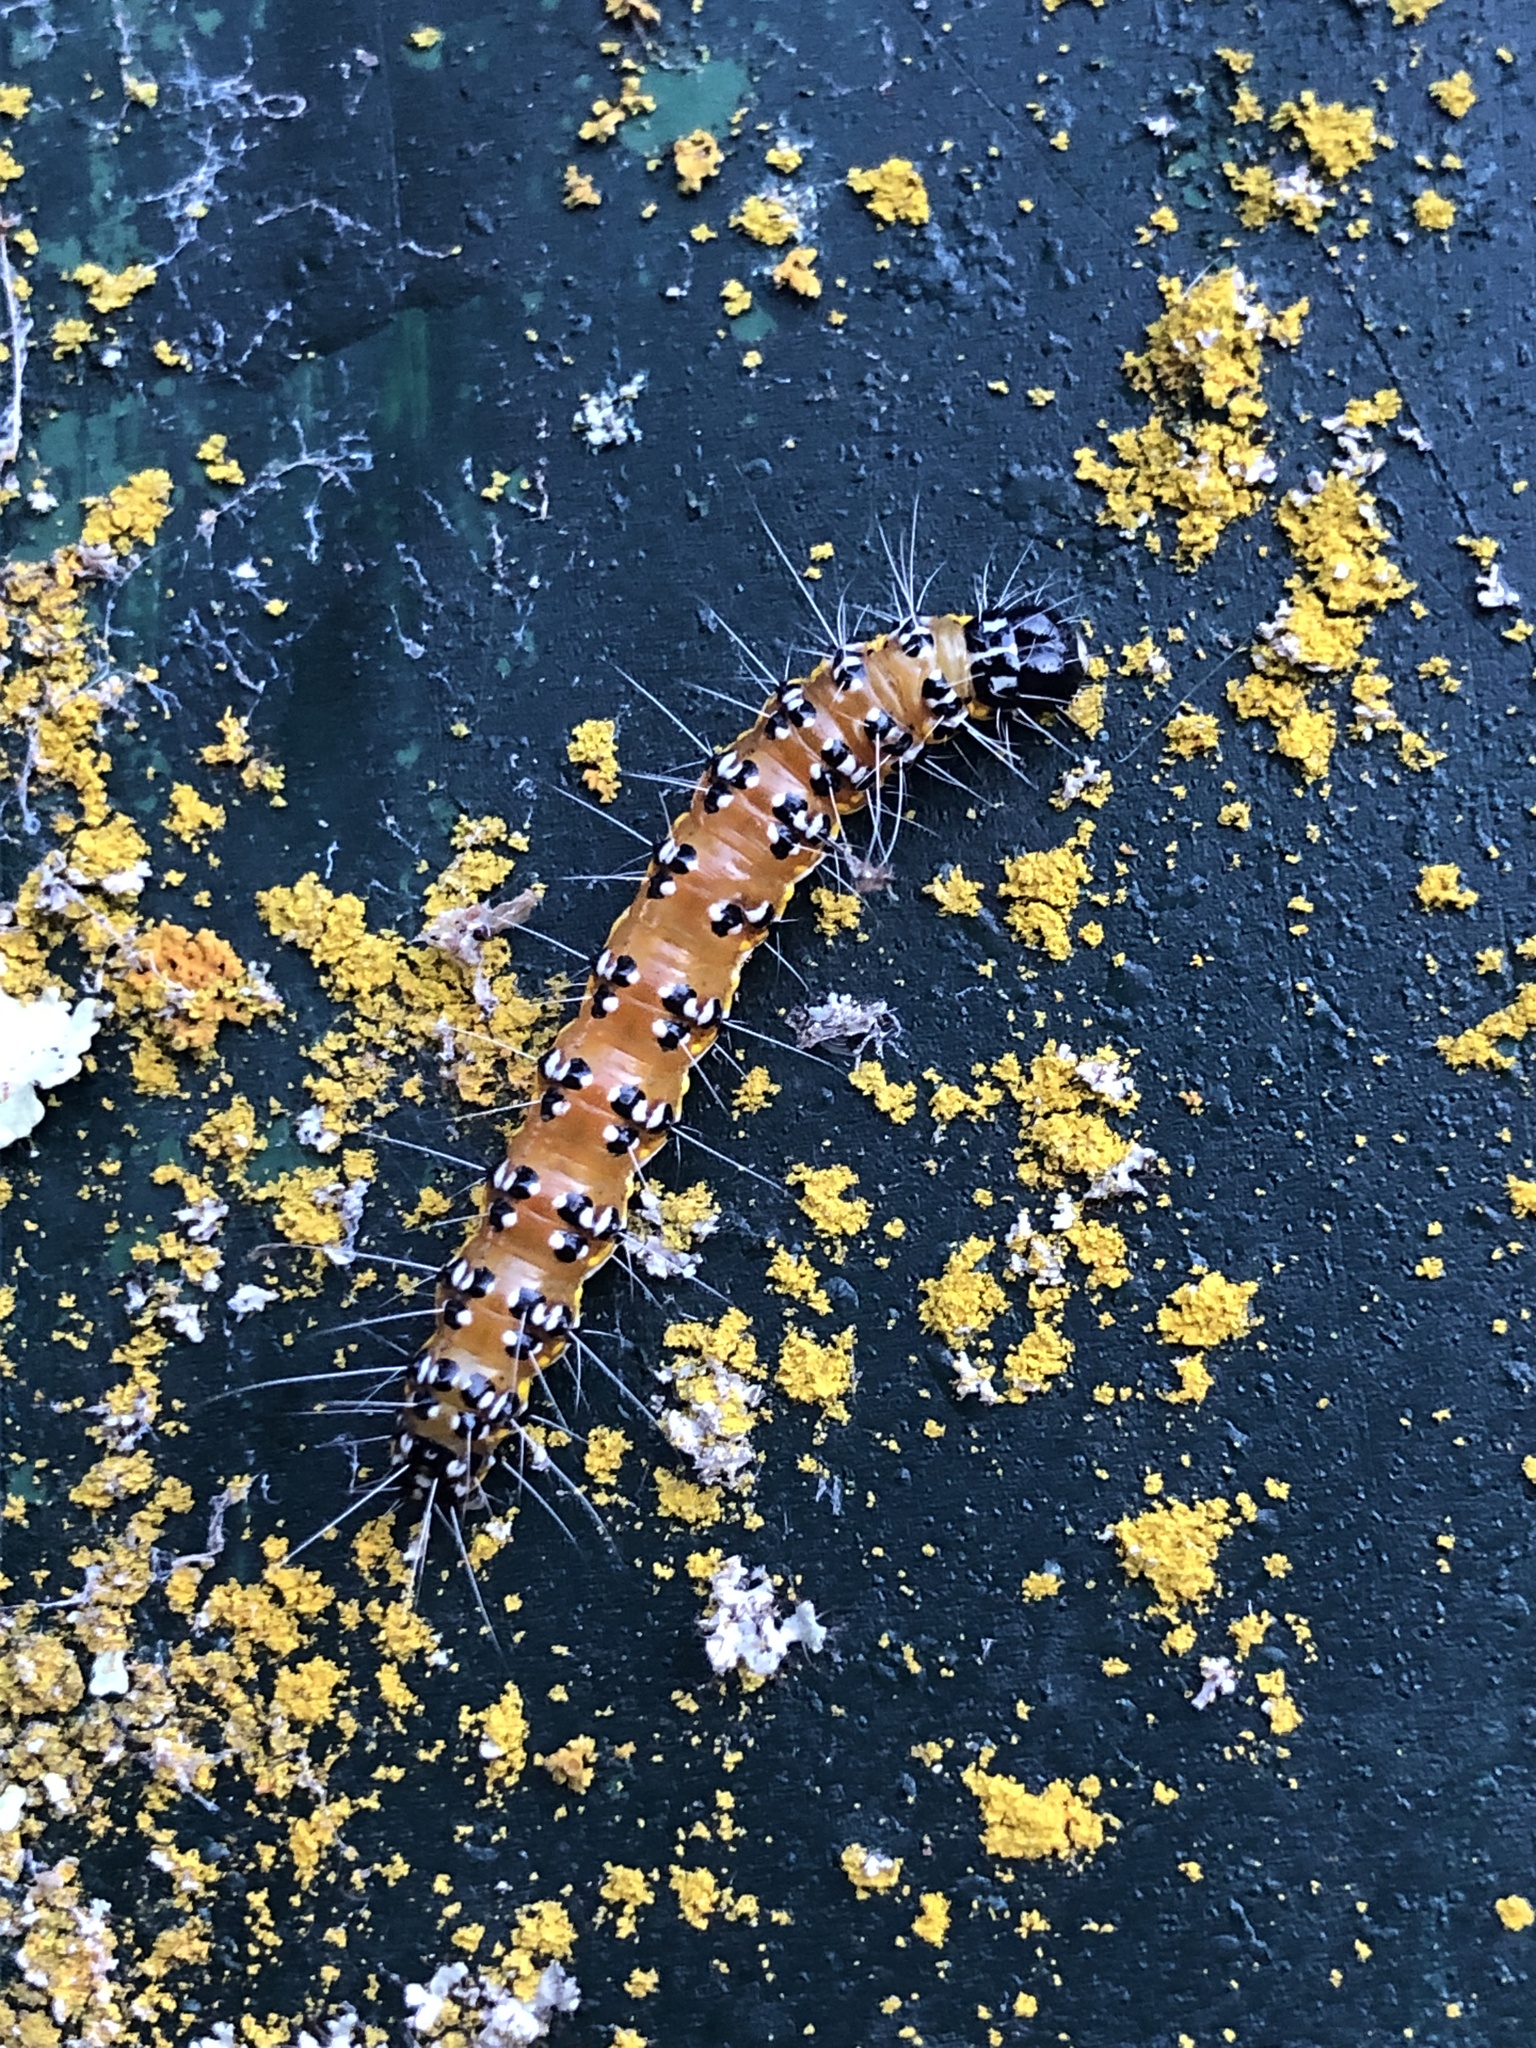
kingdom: Animalia
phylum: Arthropoda
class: Insecta
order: Lepidoptera
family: Crambidae
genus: Uresiphita
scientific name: Uresiphita reversalis
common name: Genista broom moth
